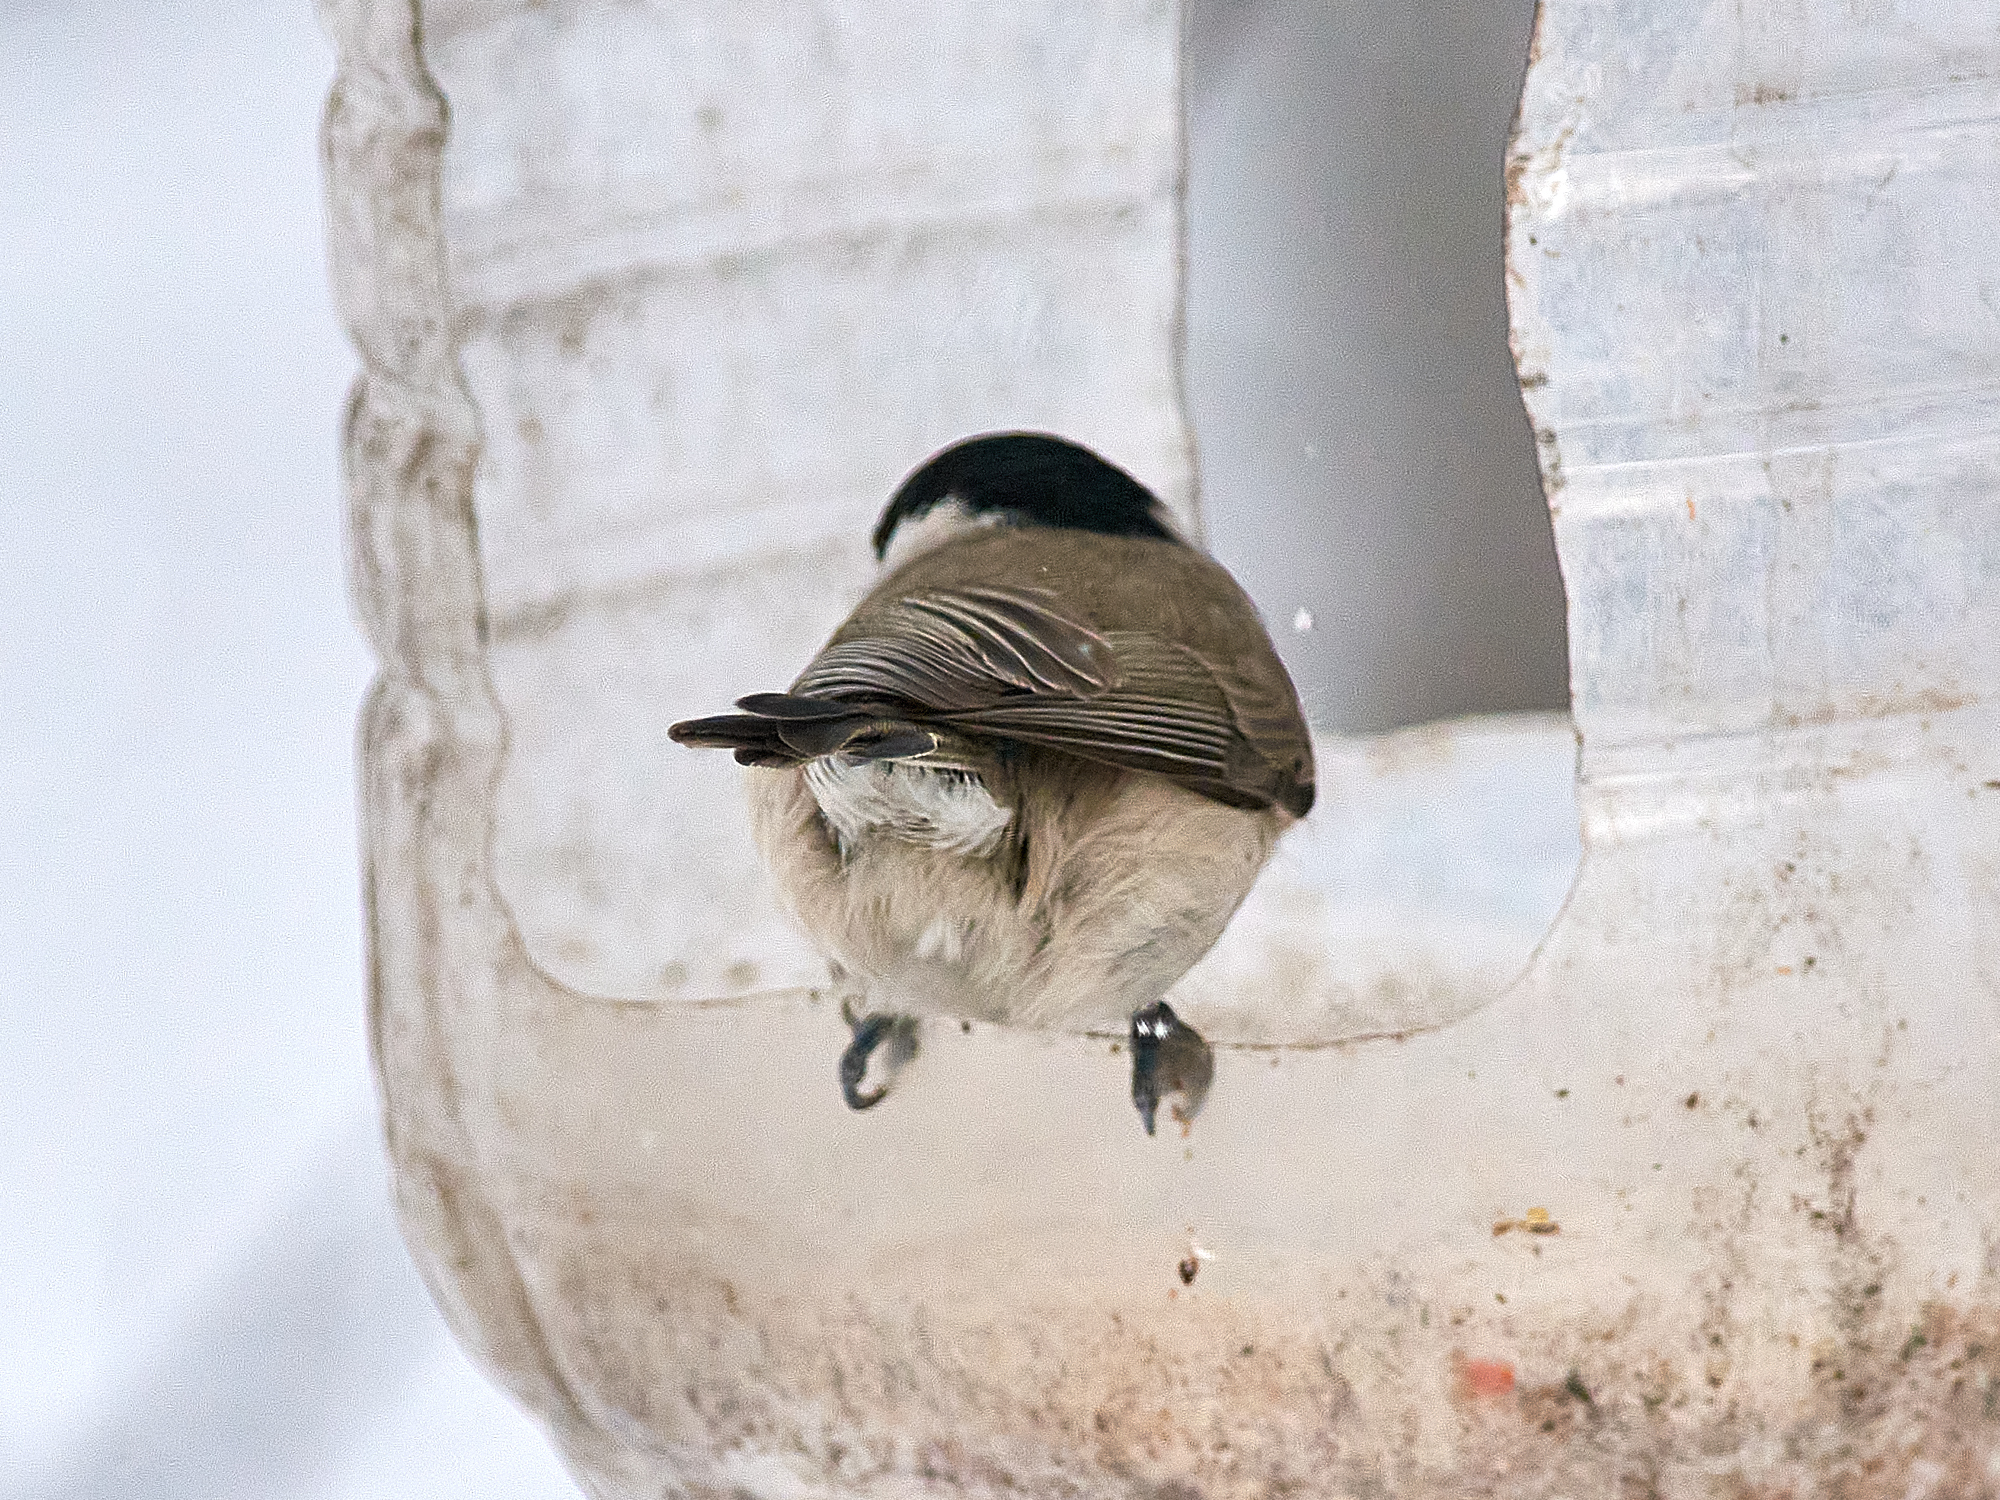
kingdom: Animalia
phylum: Chordata
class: Aves
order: Passeriformes
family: Paridae
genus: Poecile
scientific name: Poecile palustris
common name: Marsh tit
